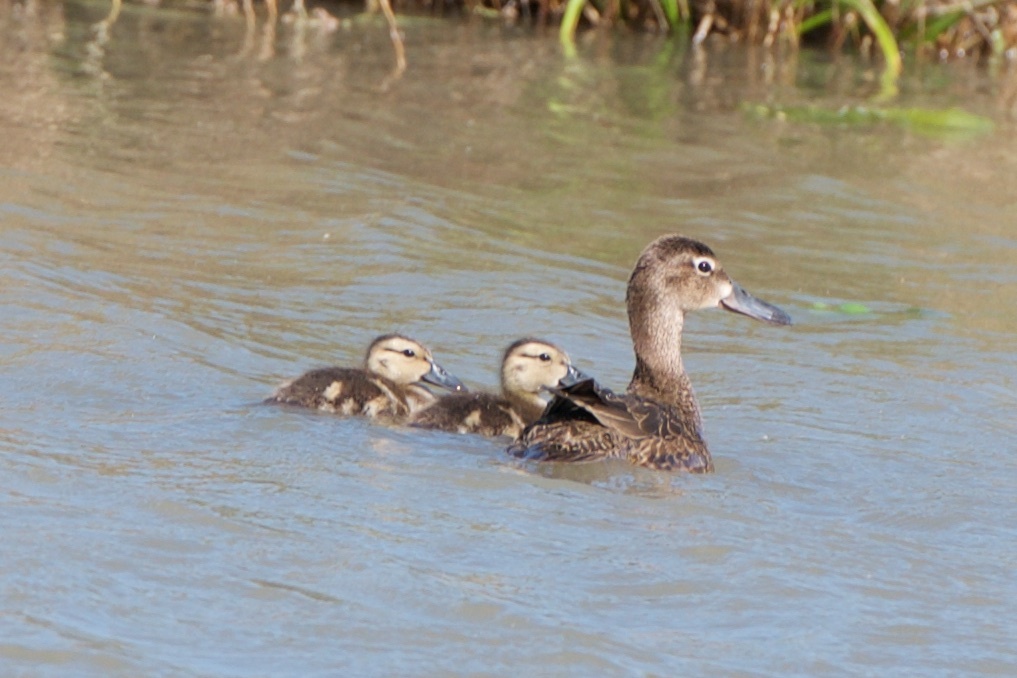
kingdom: Animalia
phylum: Chordata
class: Aves
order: Anseriformes
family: Anatidae
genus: Spatula
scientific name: Spatula discors
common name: Blue-winged teal
